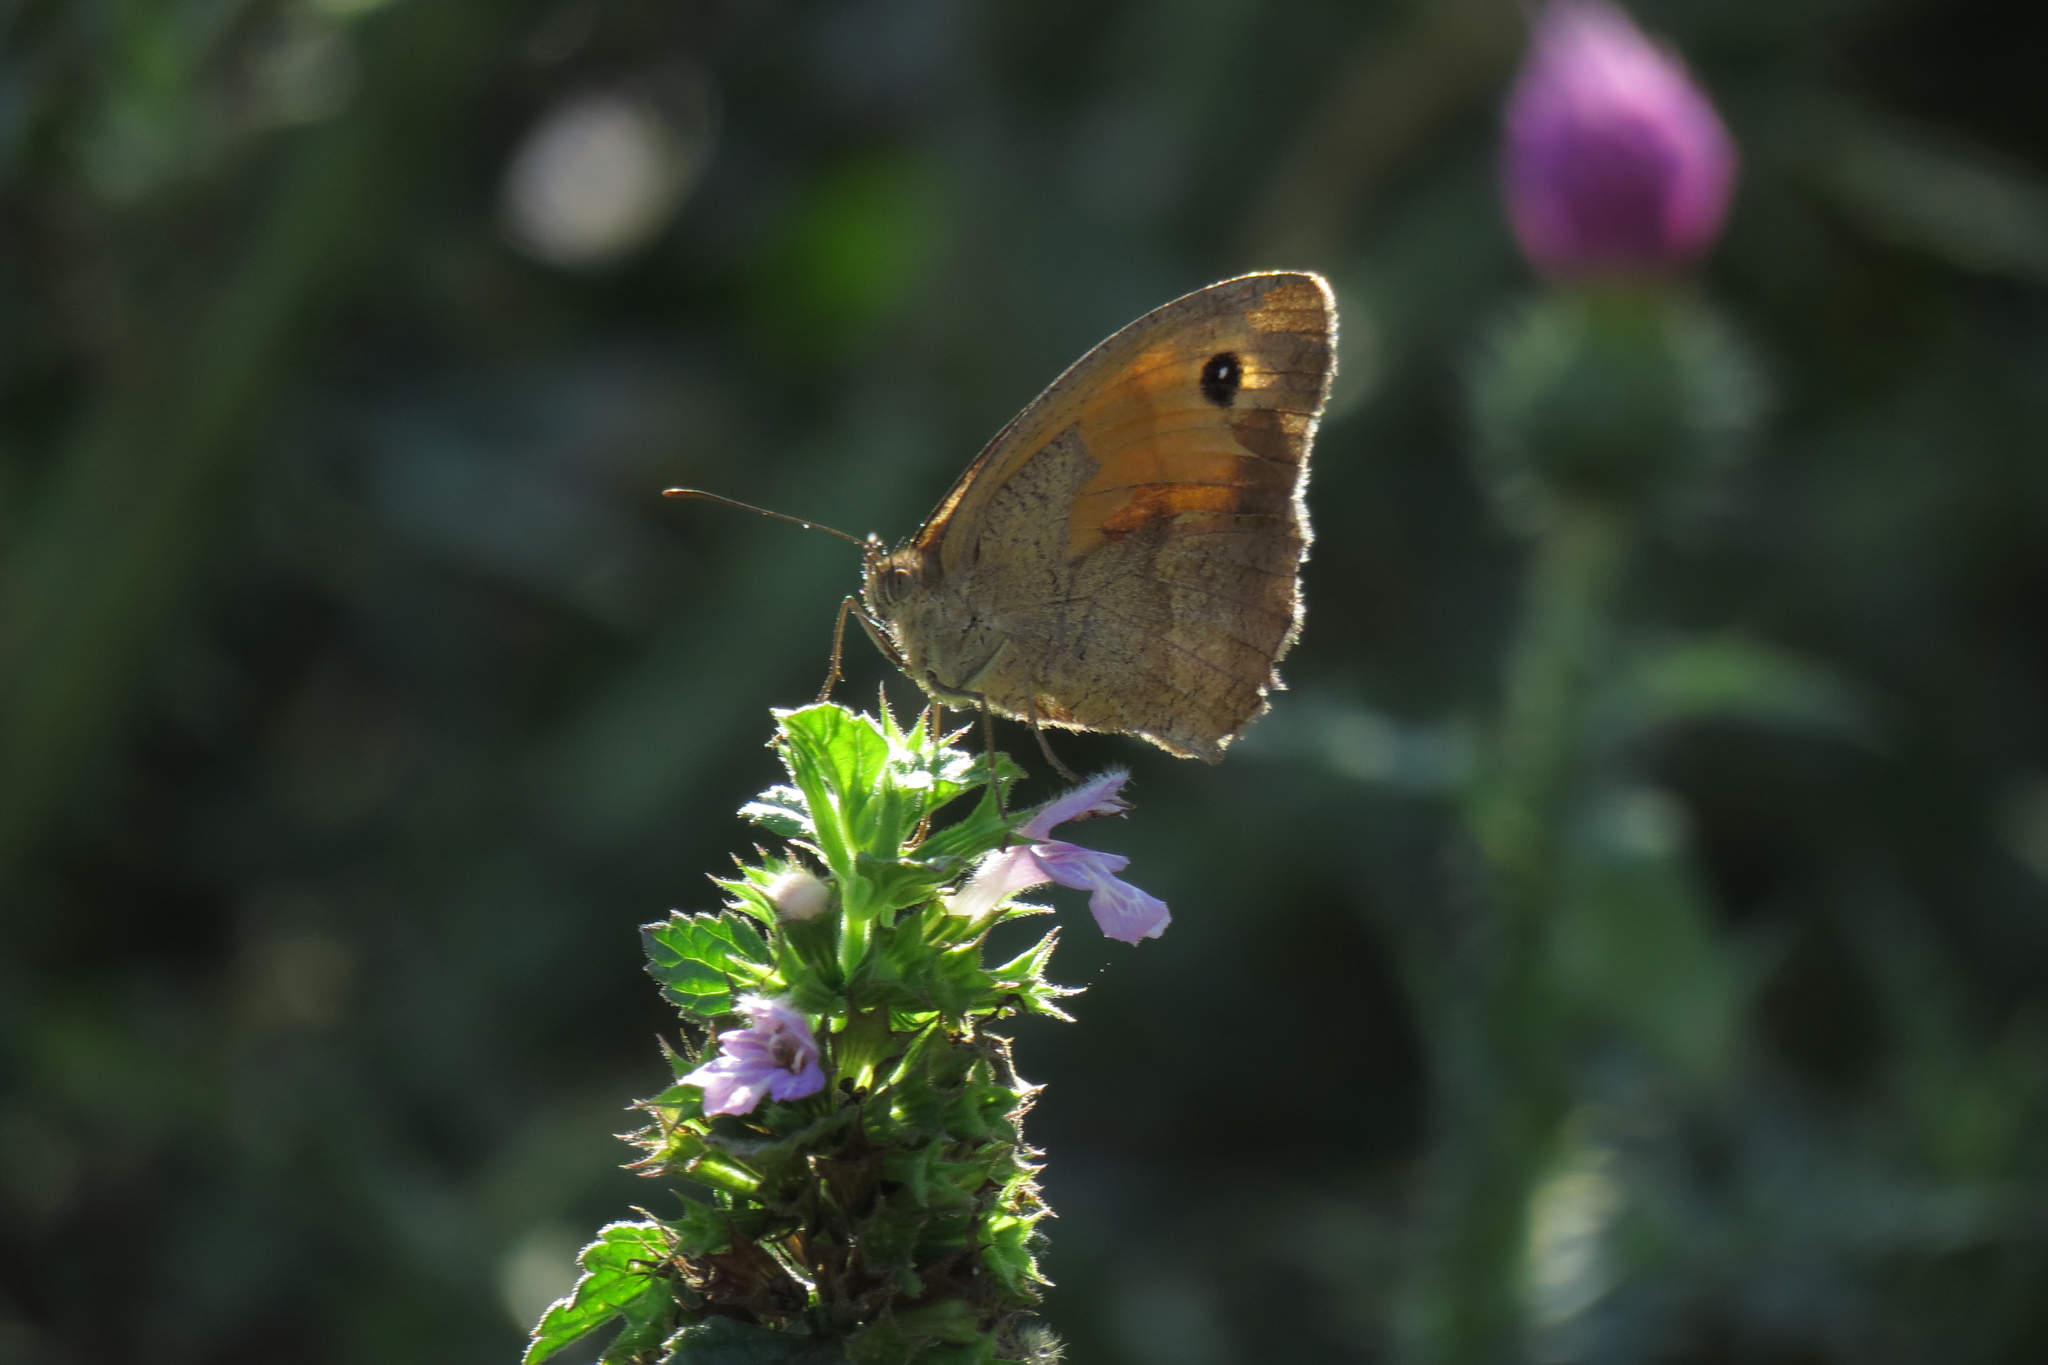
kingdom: Animalia
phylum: Arthropoda
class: Insecta
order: Lepidoptera
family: Nymphalidae
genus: Maniola
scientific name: Maniola jurtina
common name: Meadow brown
